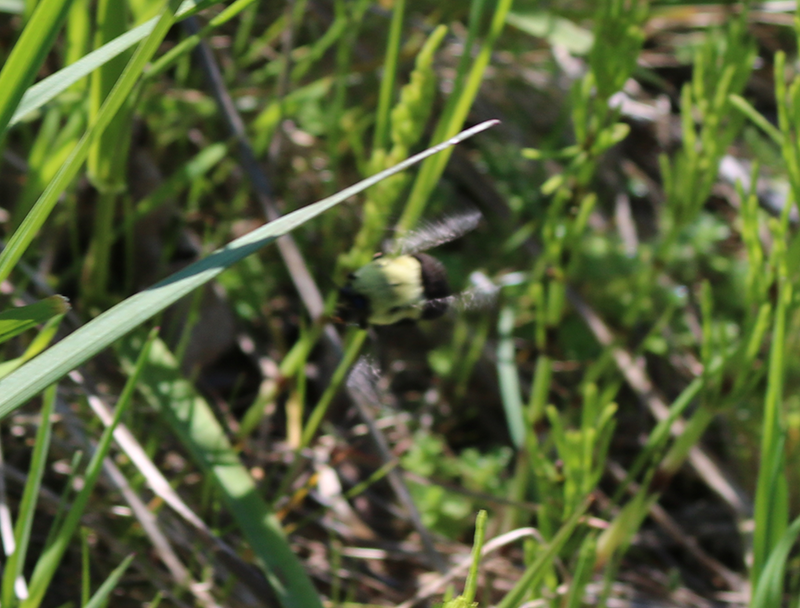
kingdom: Animalia
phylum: Arthropoda
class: Insecta
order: Hymenoptera
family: Apidae
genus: Bombus
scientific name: Bombus impatiens
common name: Common eastern bumble bee
